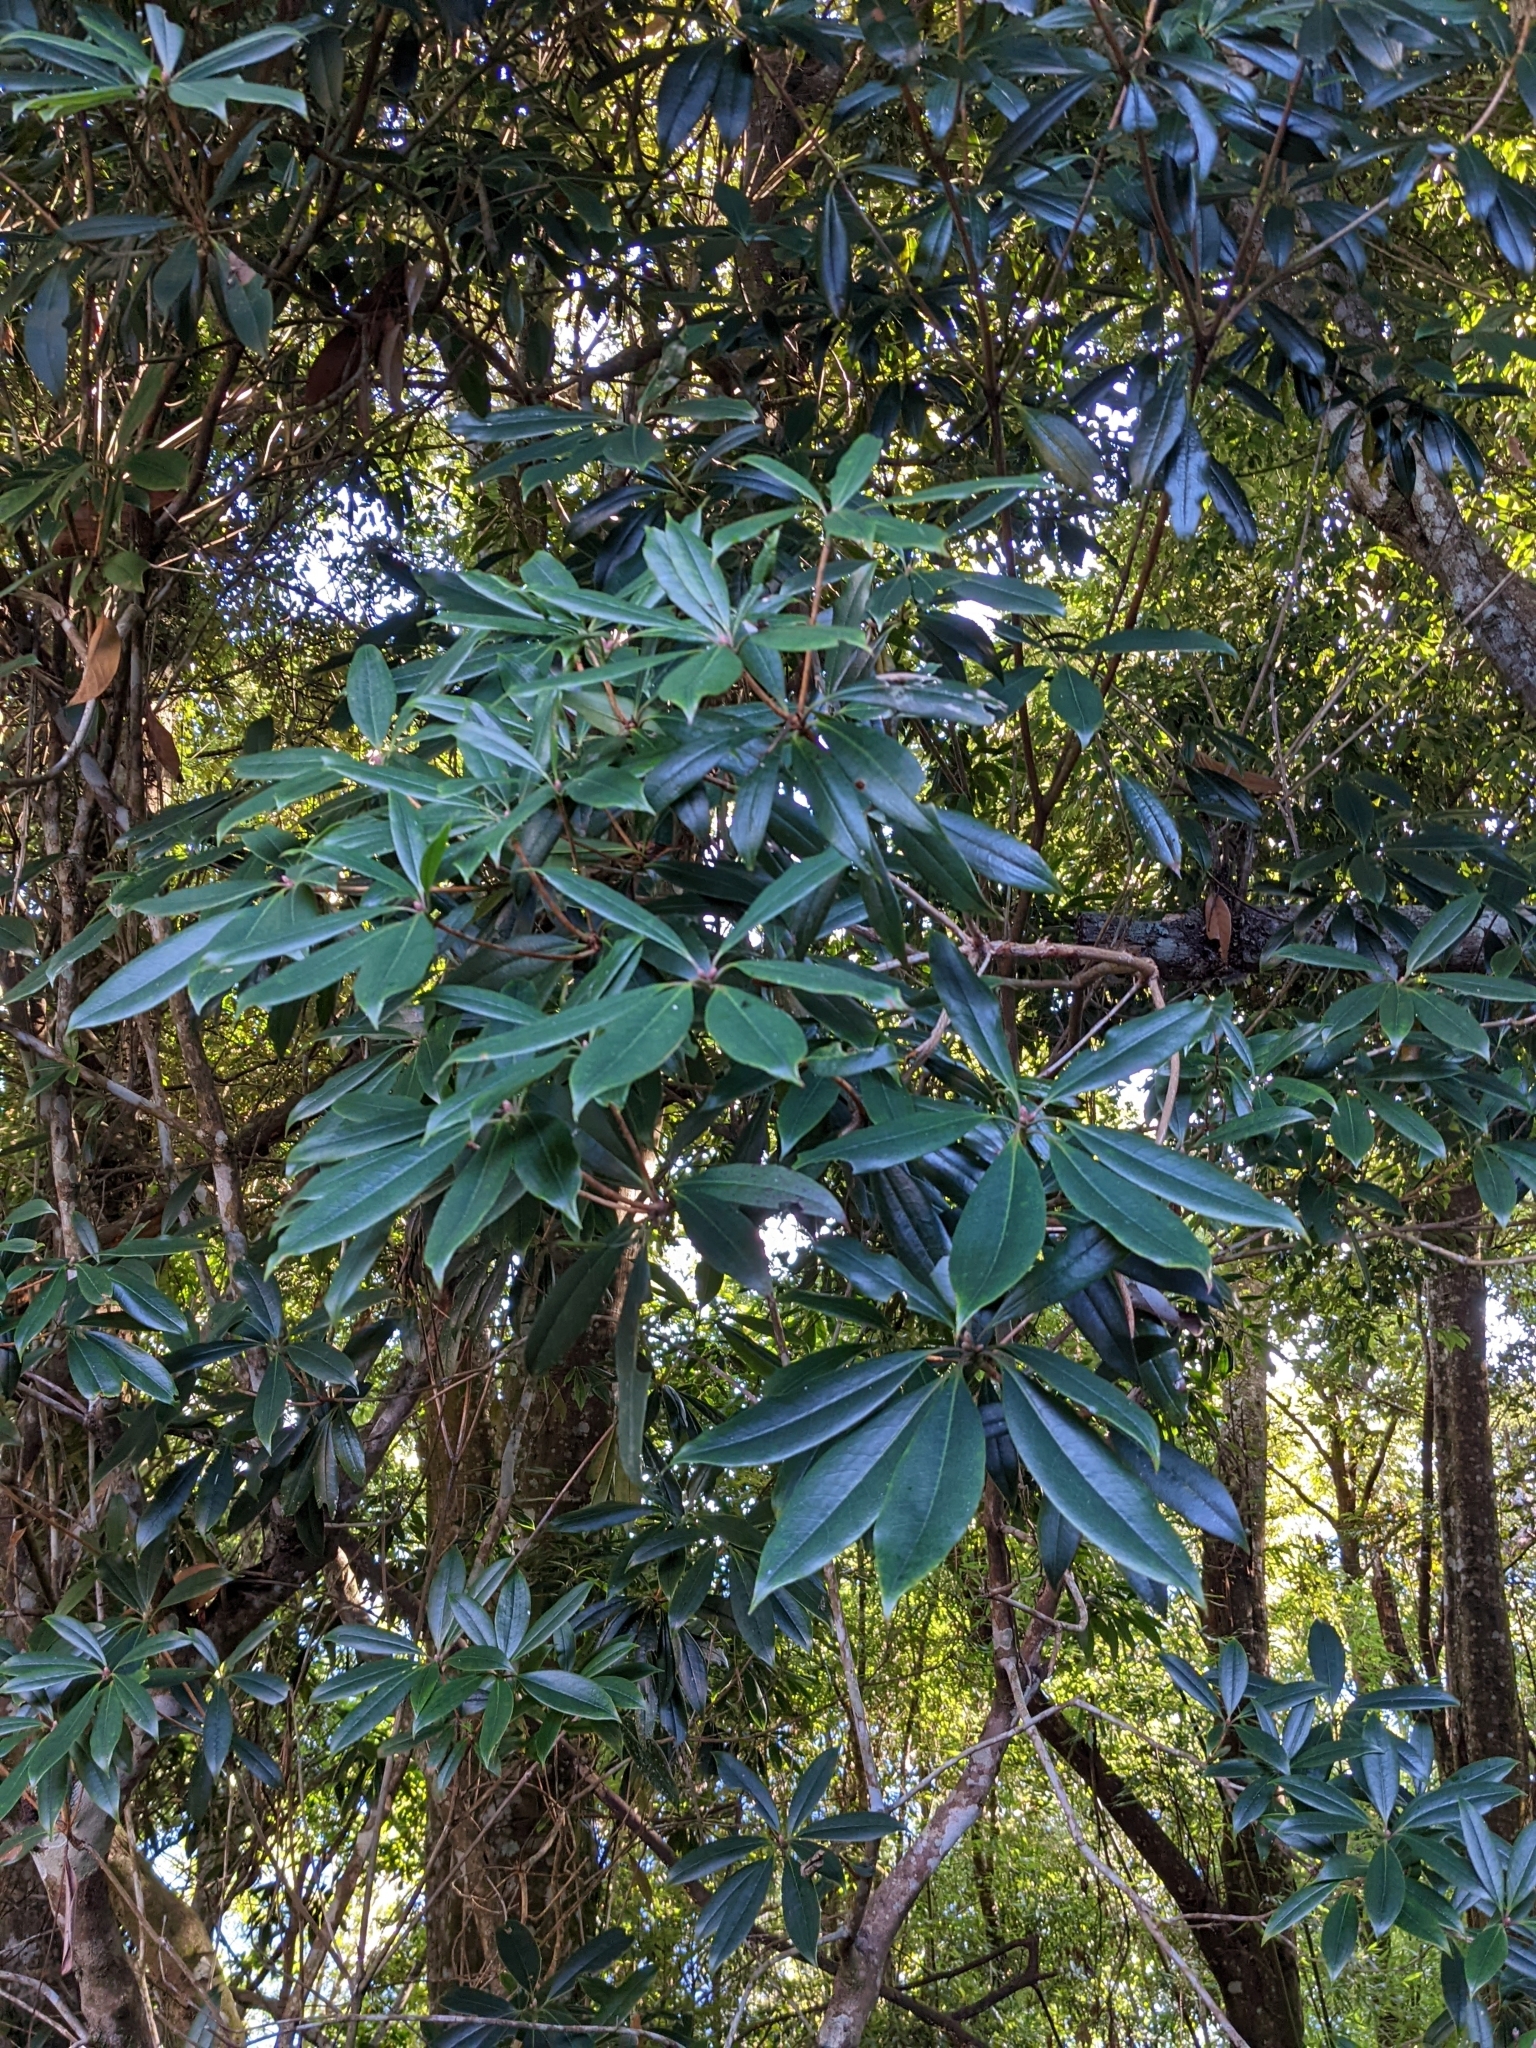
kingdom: Plantae
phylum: Tracheophyta
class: Magnoliopsida
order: Ericales
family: Ericaceae
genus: Rhododendron
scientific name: Rhododendron pseudochrysanthum
